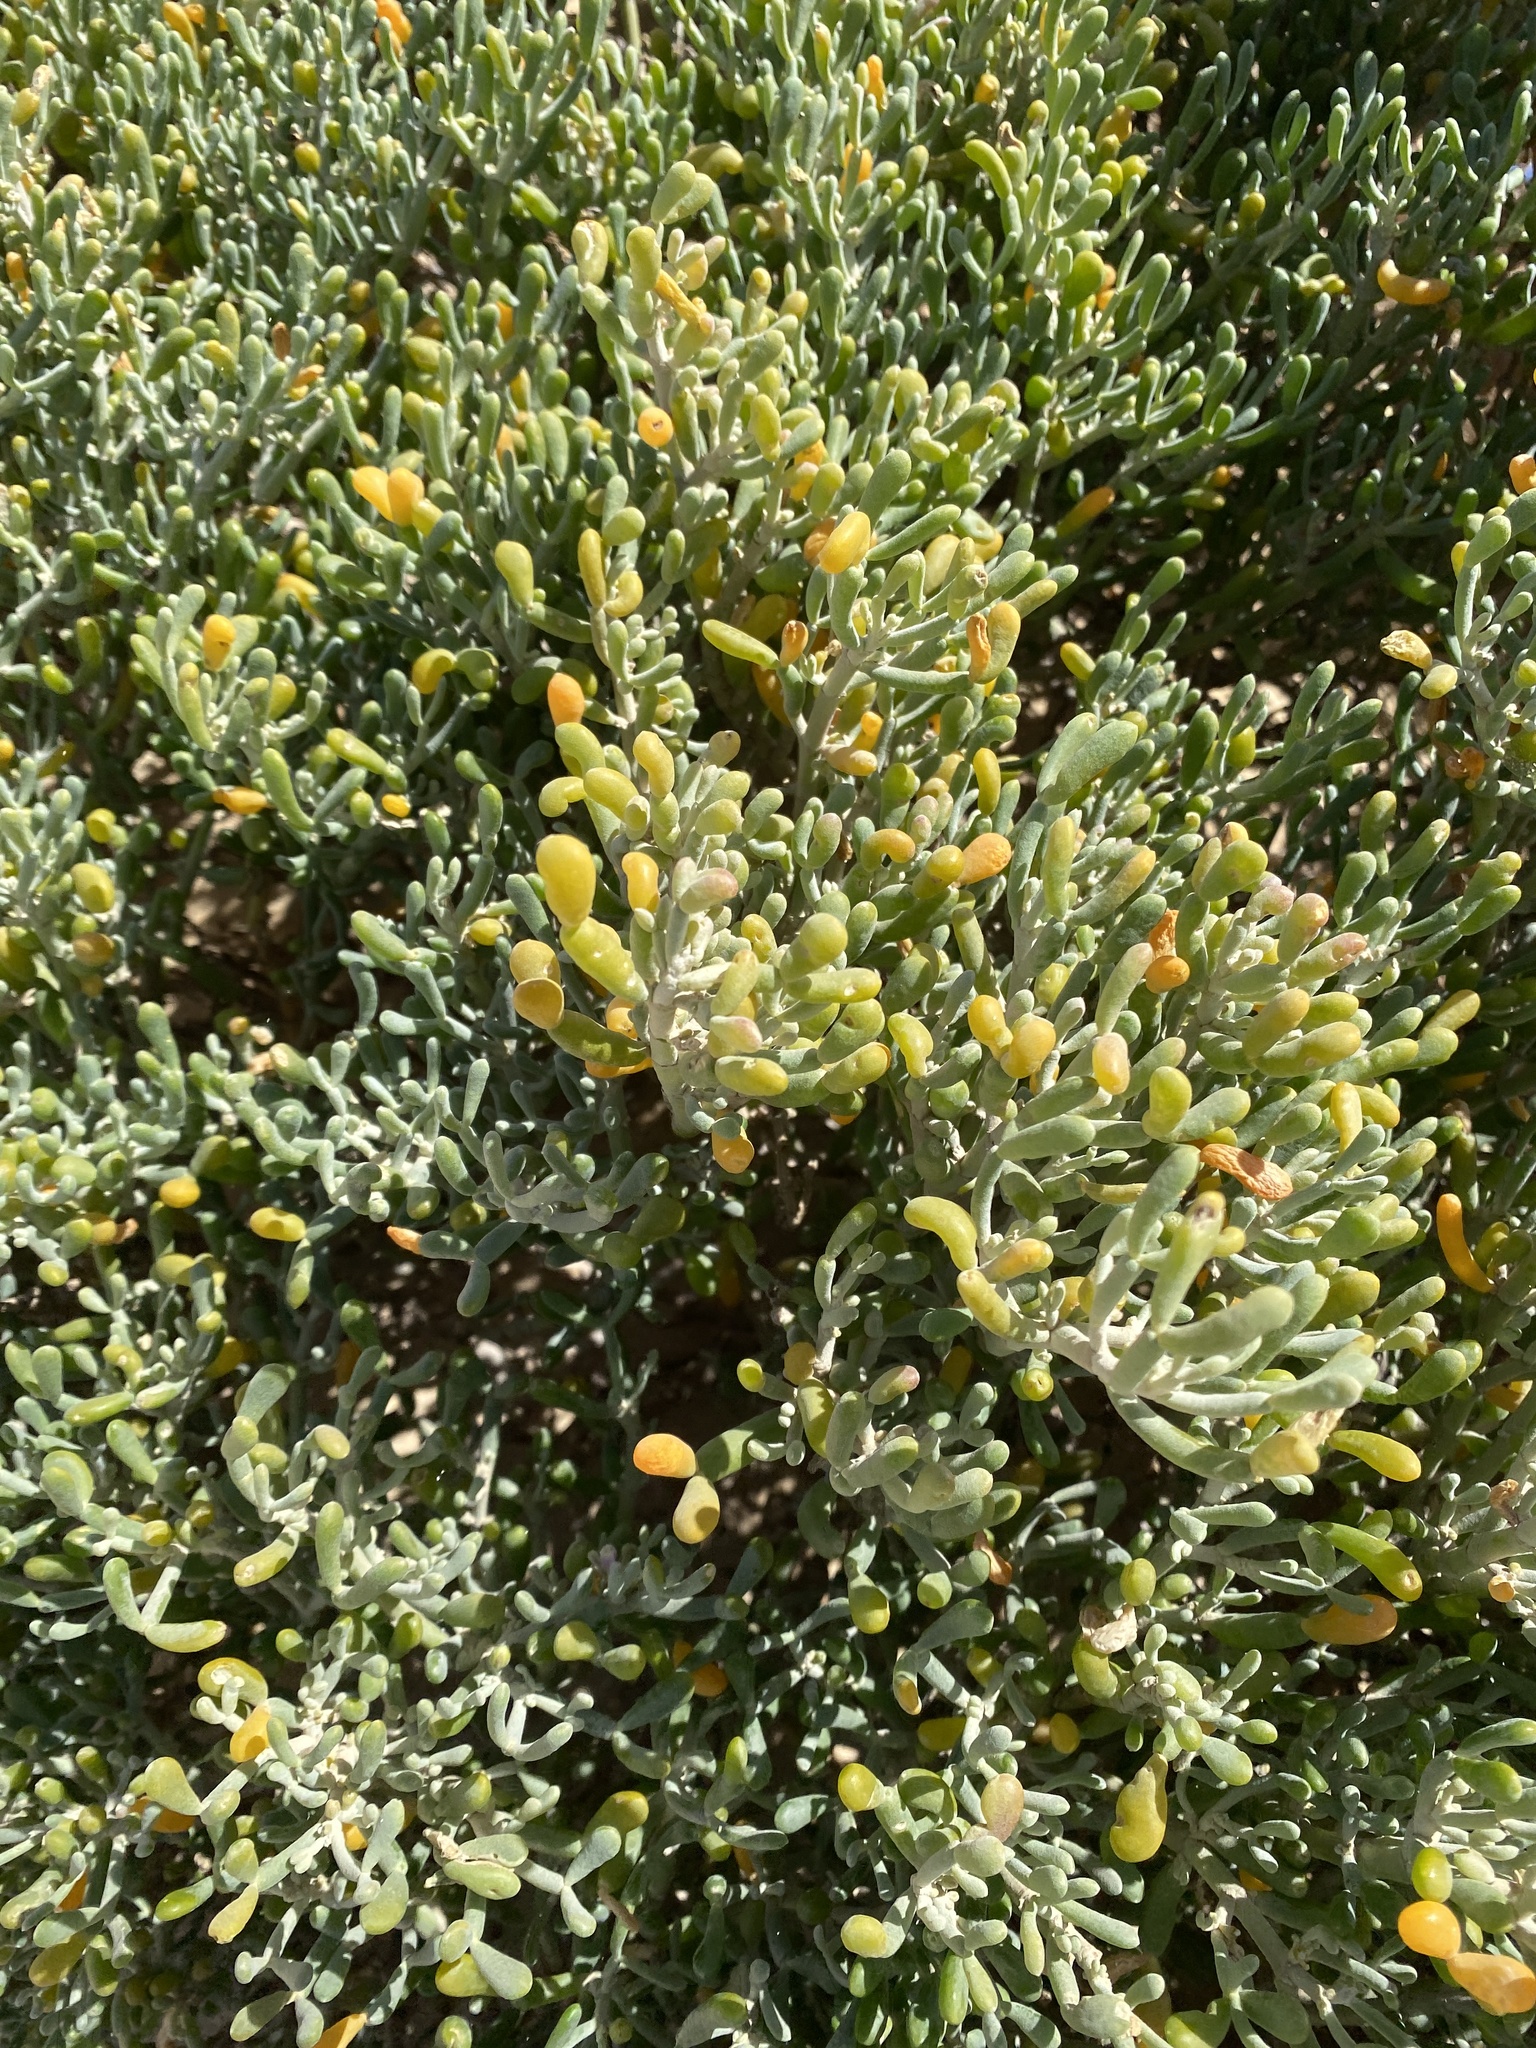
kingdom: Plantae
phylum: Tracheophyta
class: Magnoliopsida
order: Zygophyllales
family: Zygophyllaceae
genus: Tetraena
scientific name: Tetraena fontanesii
